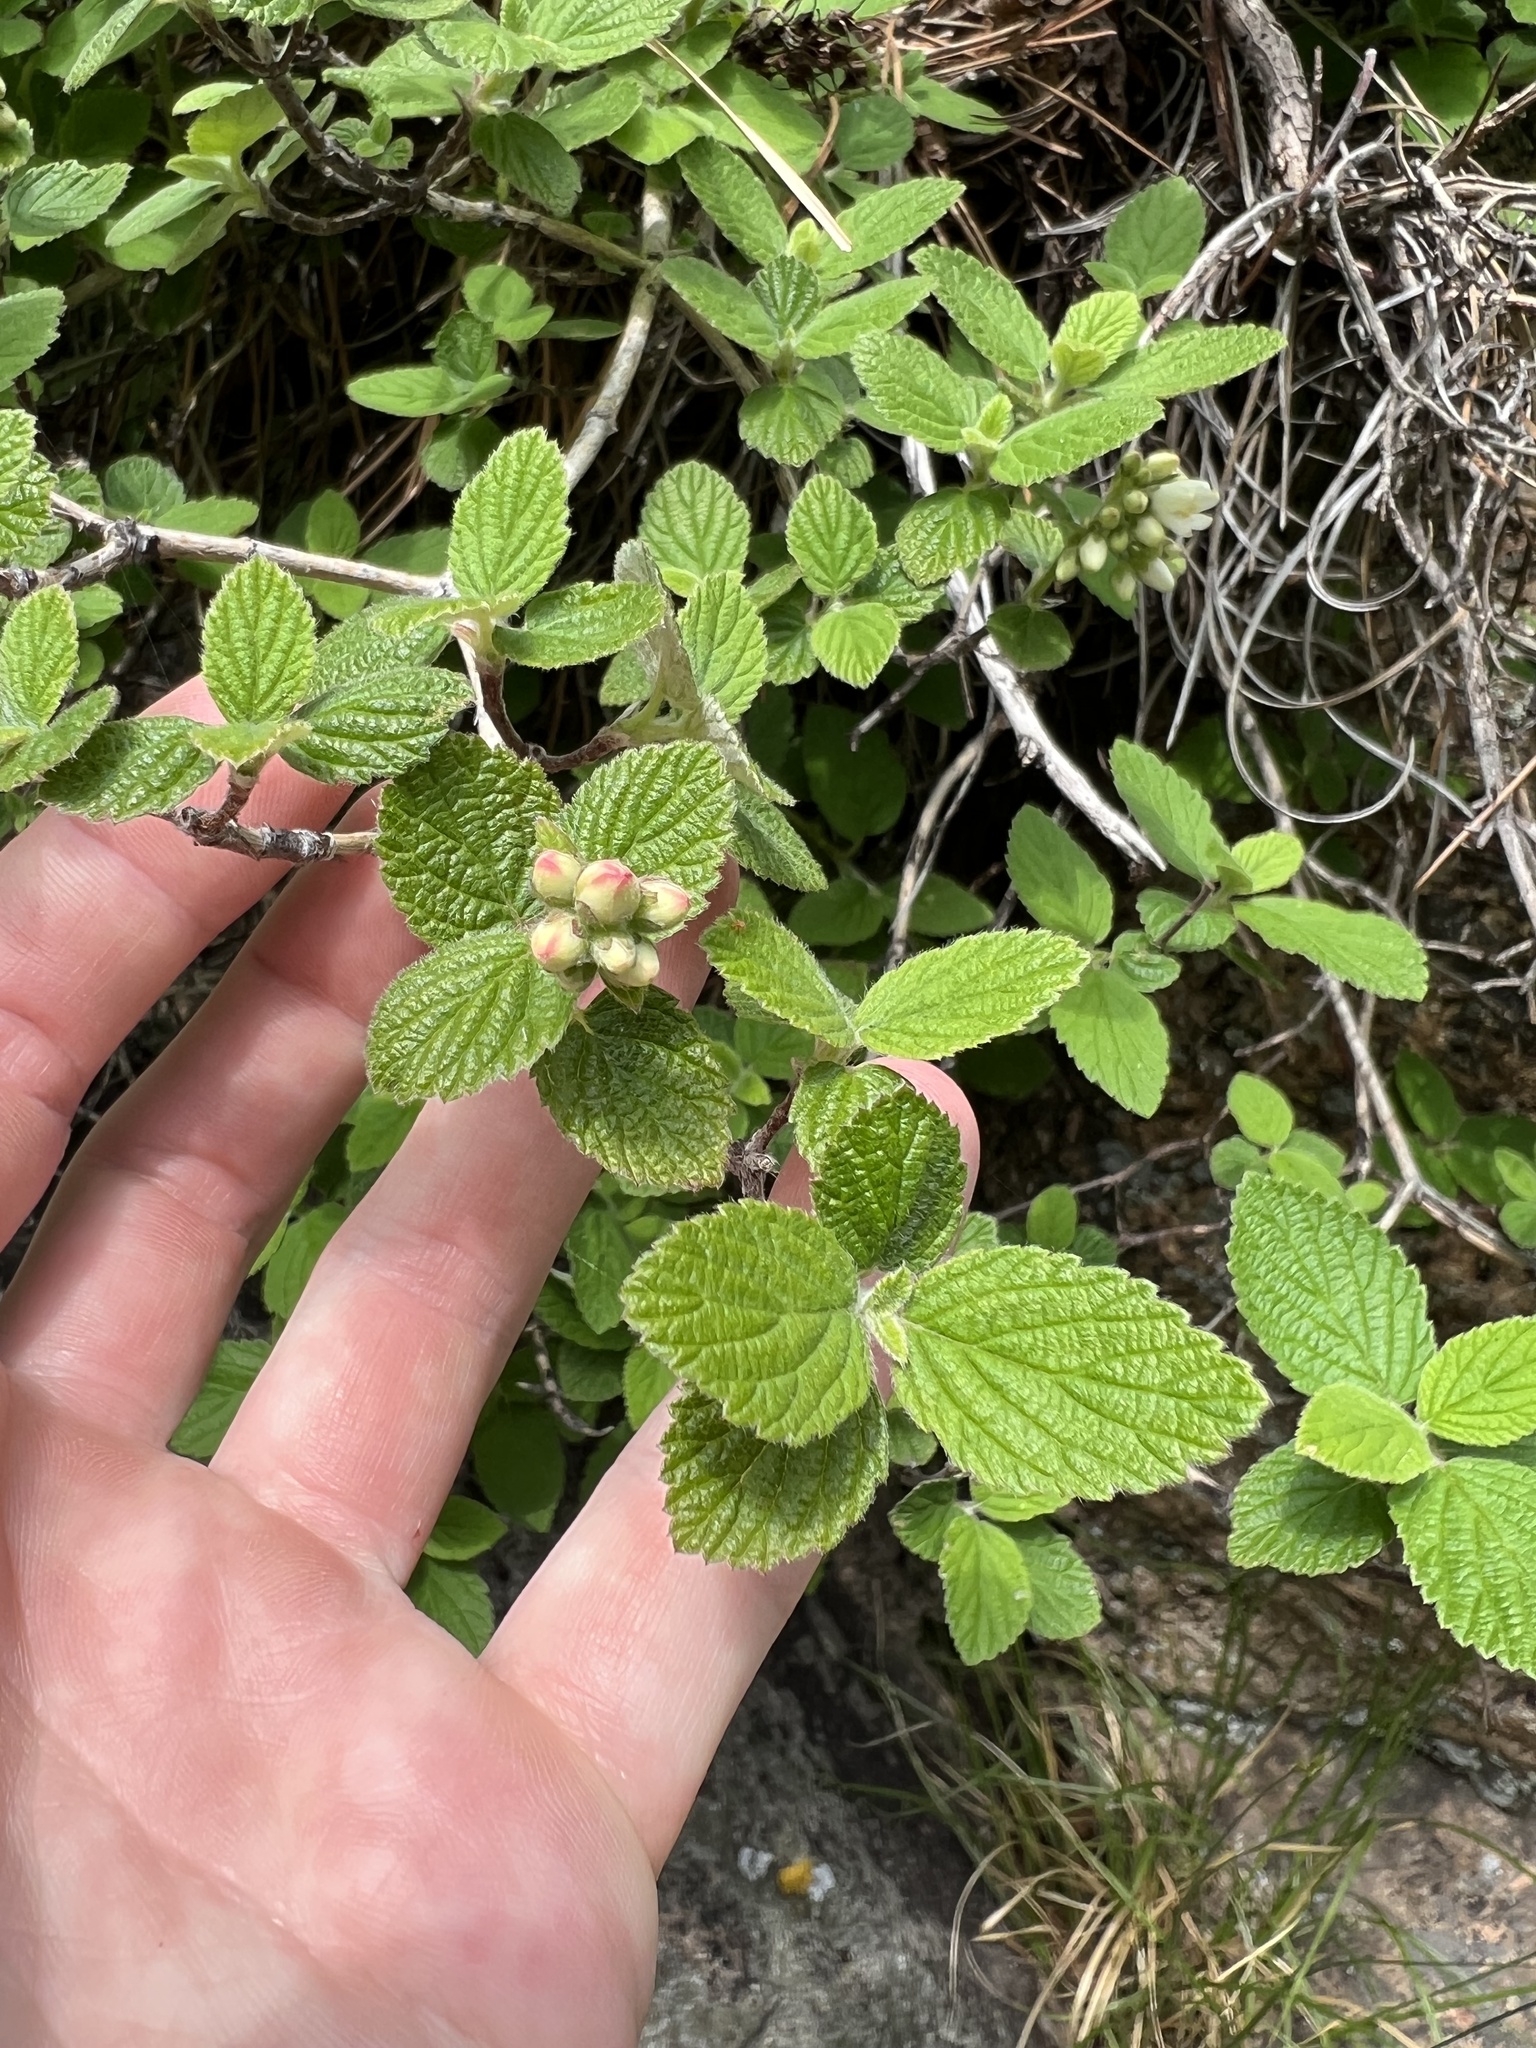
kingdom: Plantae
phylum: Tracheophyta
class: Magnoliopsida
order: Cornales
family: Hydrangeaceae
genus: Jamesia
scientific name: Jamesia americana
